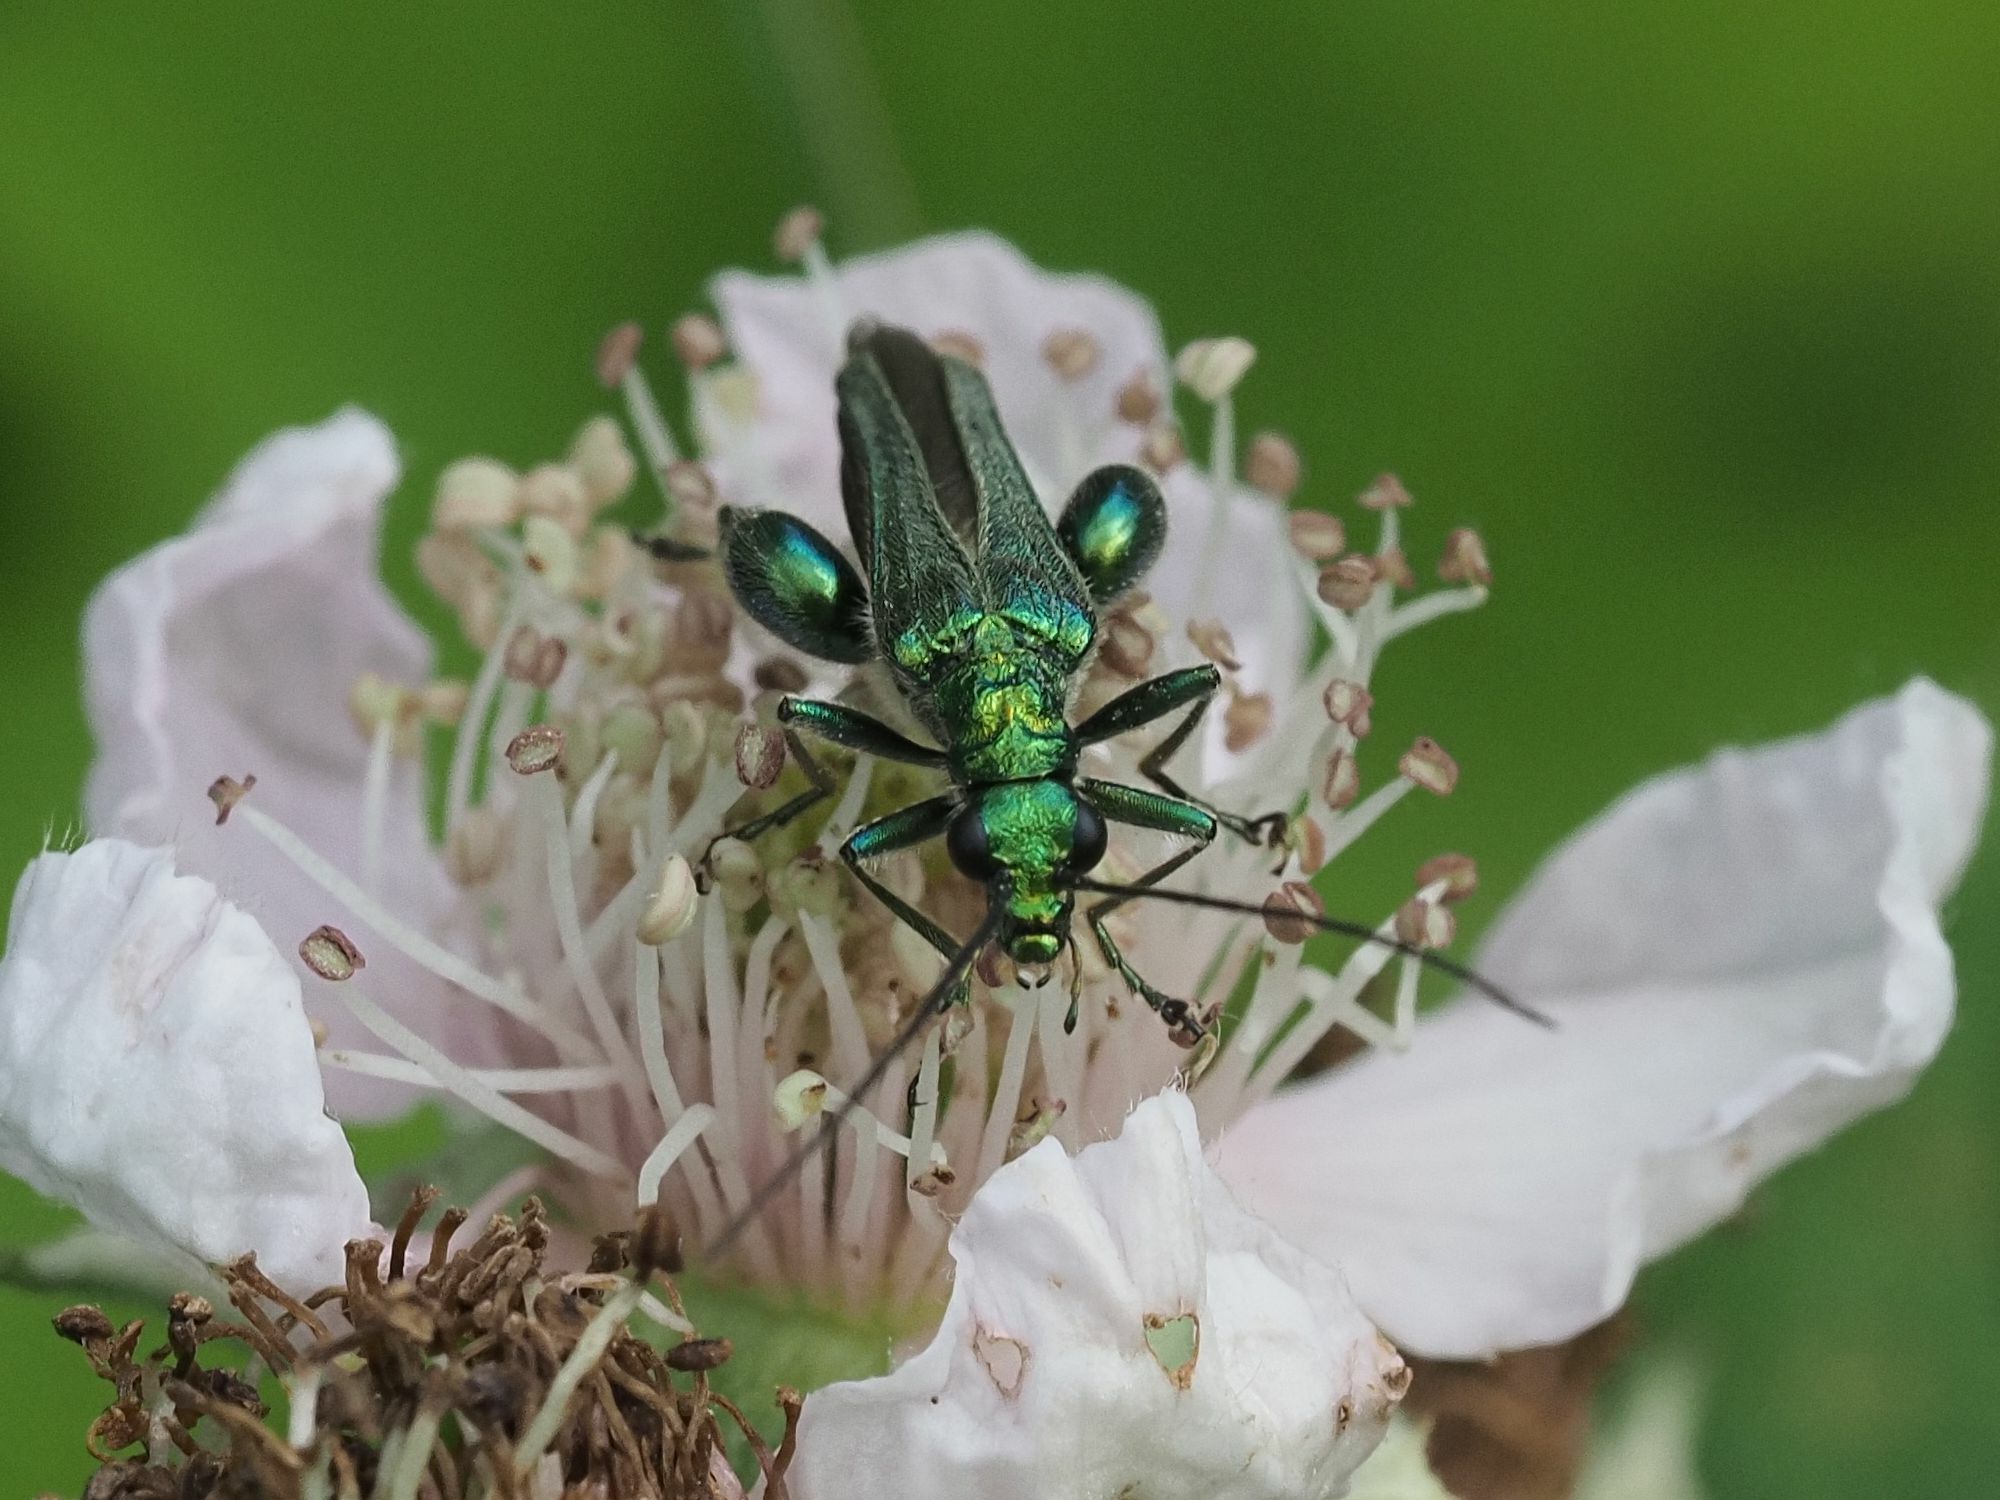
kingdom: Animalia
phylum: Arthropoda
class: Insecta
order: Coleoptera
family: Oedemeridae
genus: Oedemera
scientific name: Oedemera nobilis
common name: Swollen-thighed beetle
